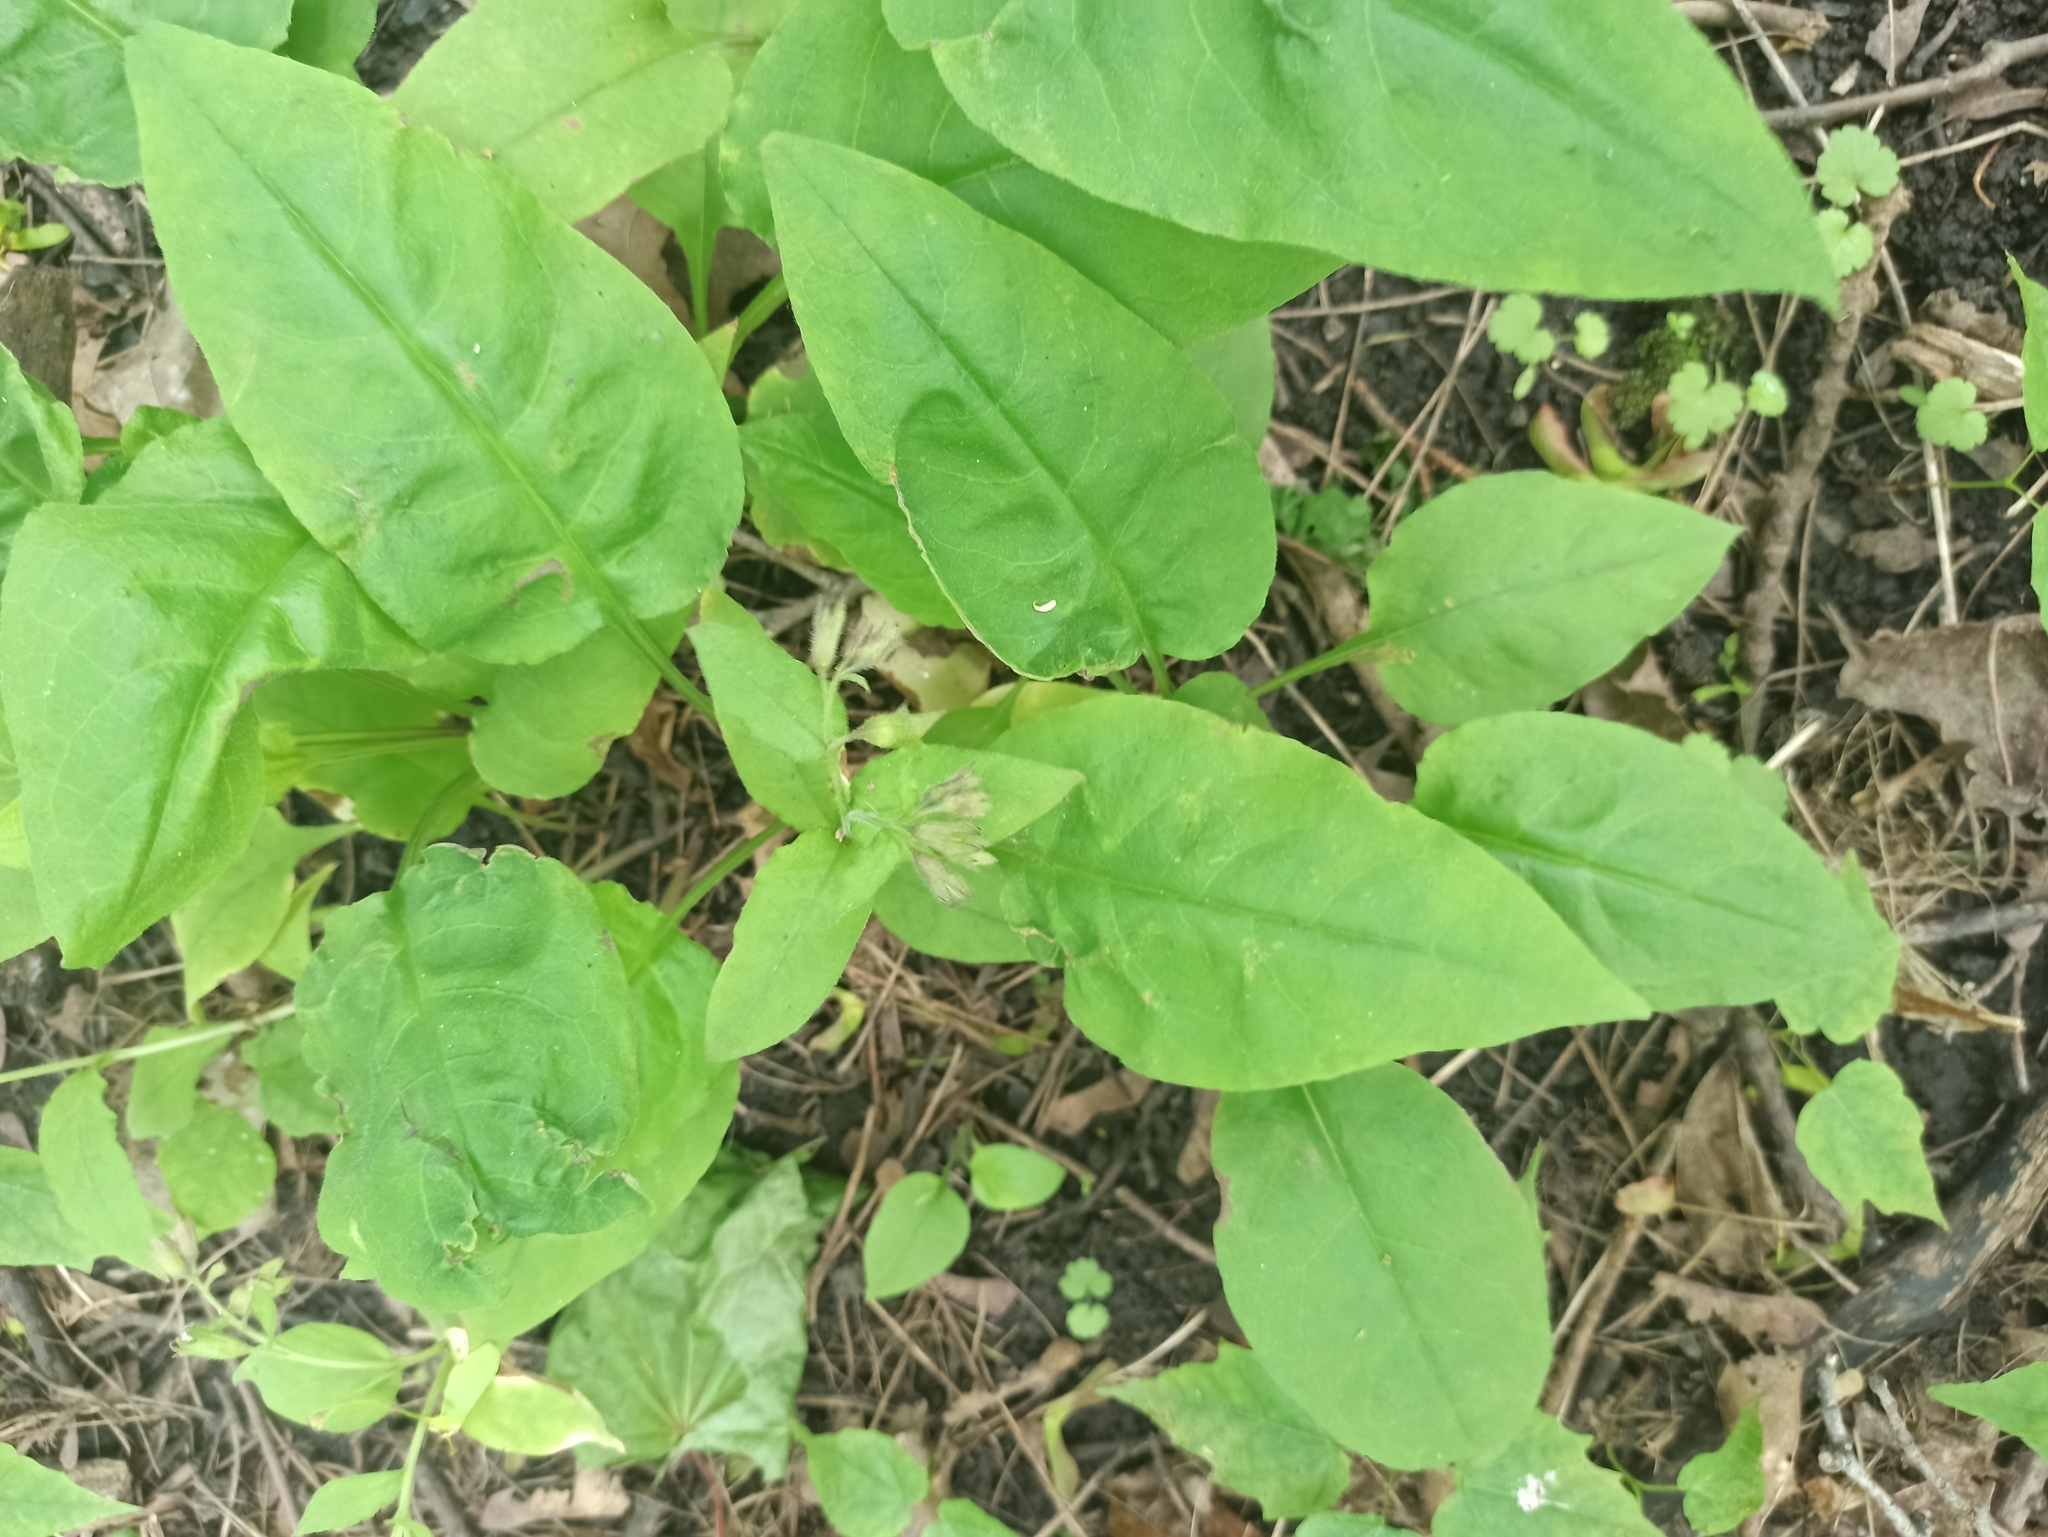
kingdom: Plantae
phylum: Tracheophyta
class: Magnoliopsida
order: Boraginales
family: Boraginaceae
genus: Pulmonaria
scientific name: Pulmonaria obscura
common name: Suffolk lungwort
